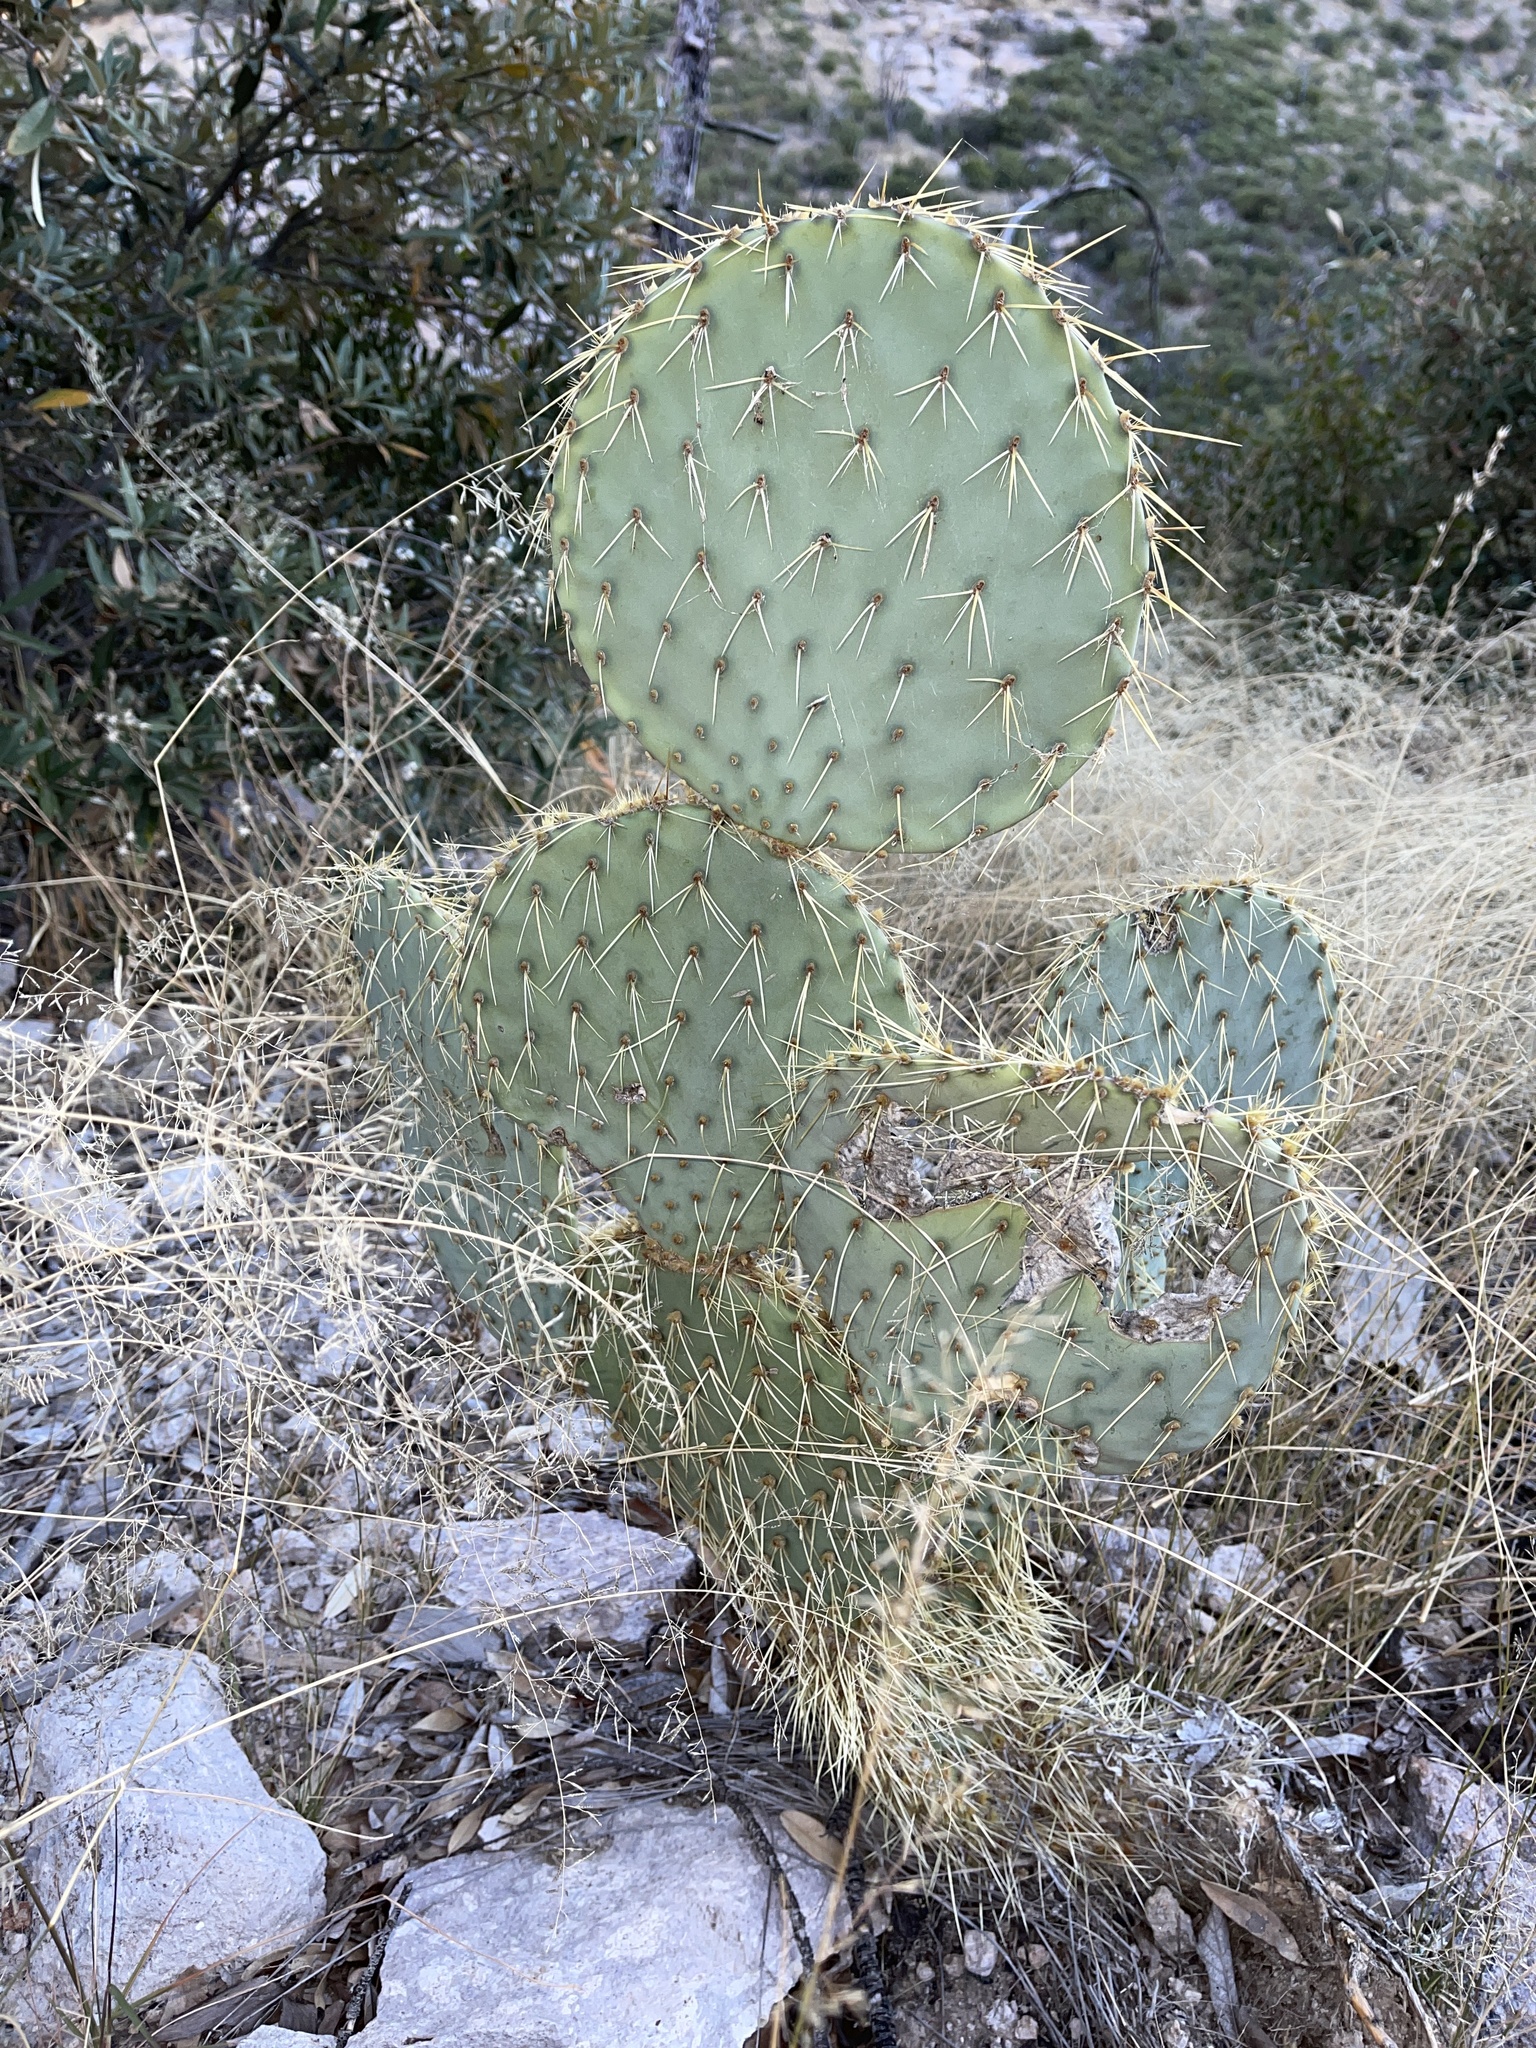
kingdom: Plantae
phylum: Tracheophyta
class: Magnoliopsida
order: Caryophyllales
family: Cactaceae
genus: Opuntia
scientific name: Opuntia chlorotica
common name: Dollar-joint prickly-pear
